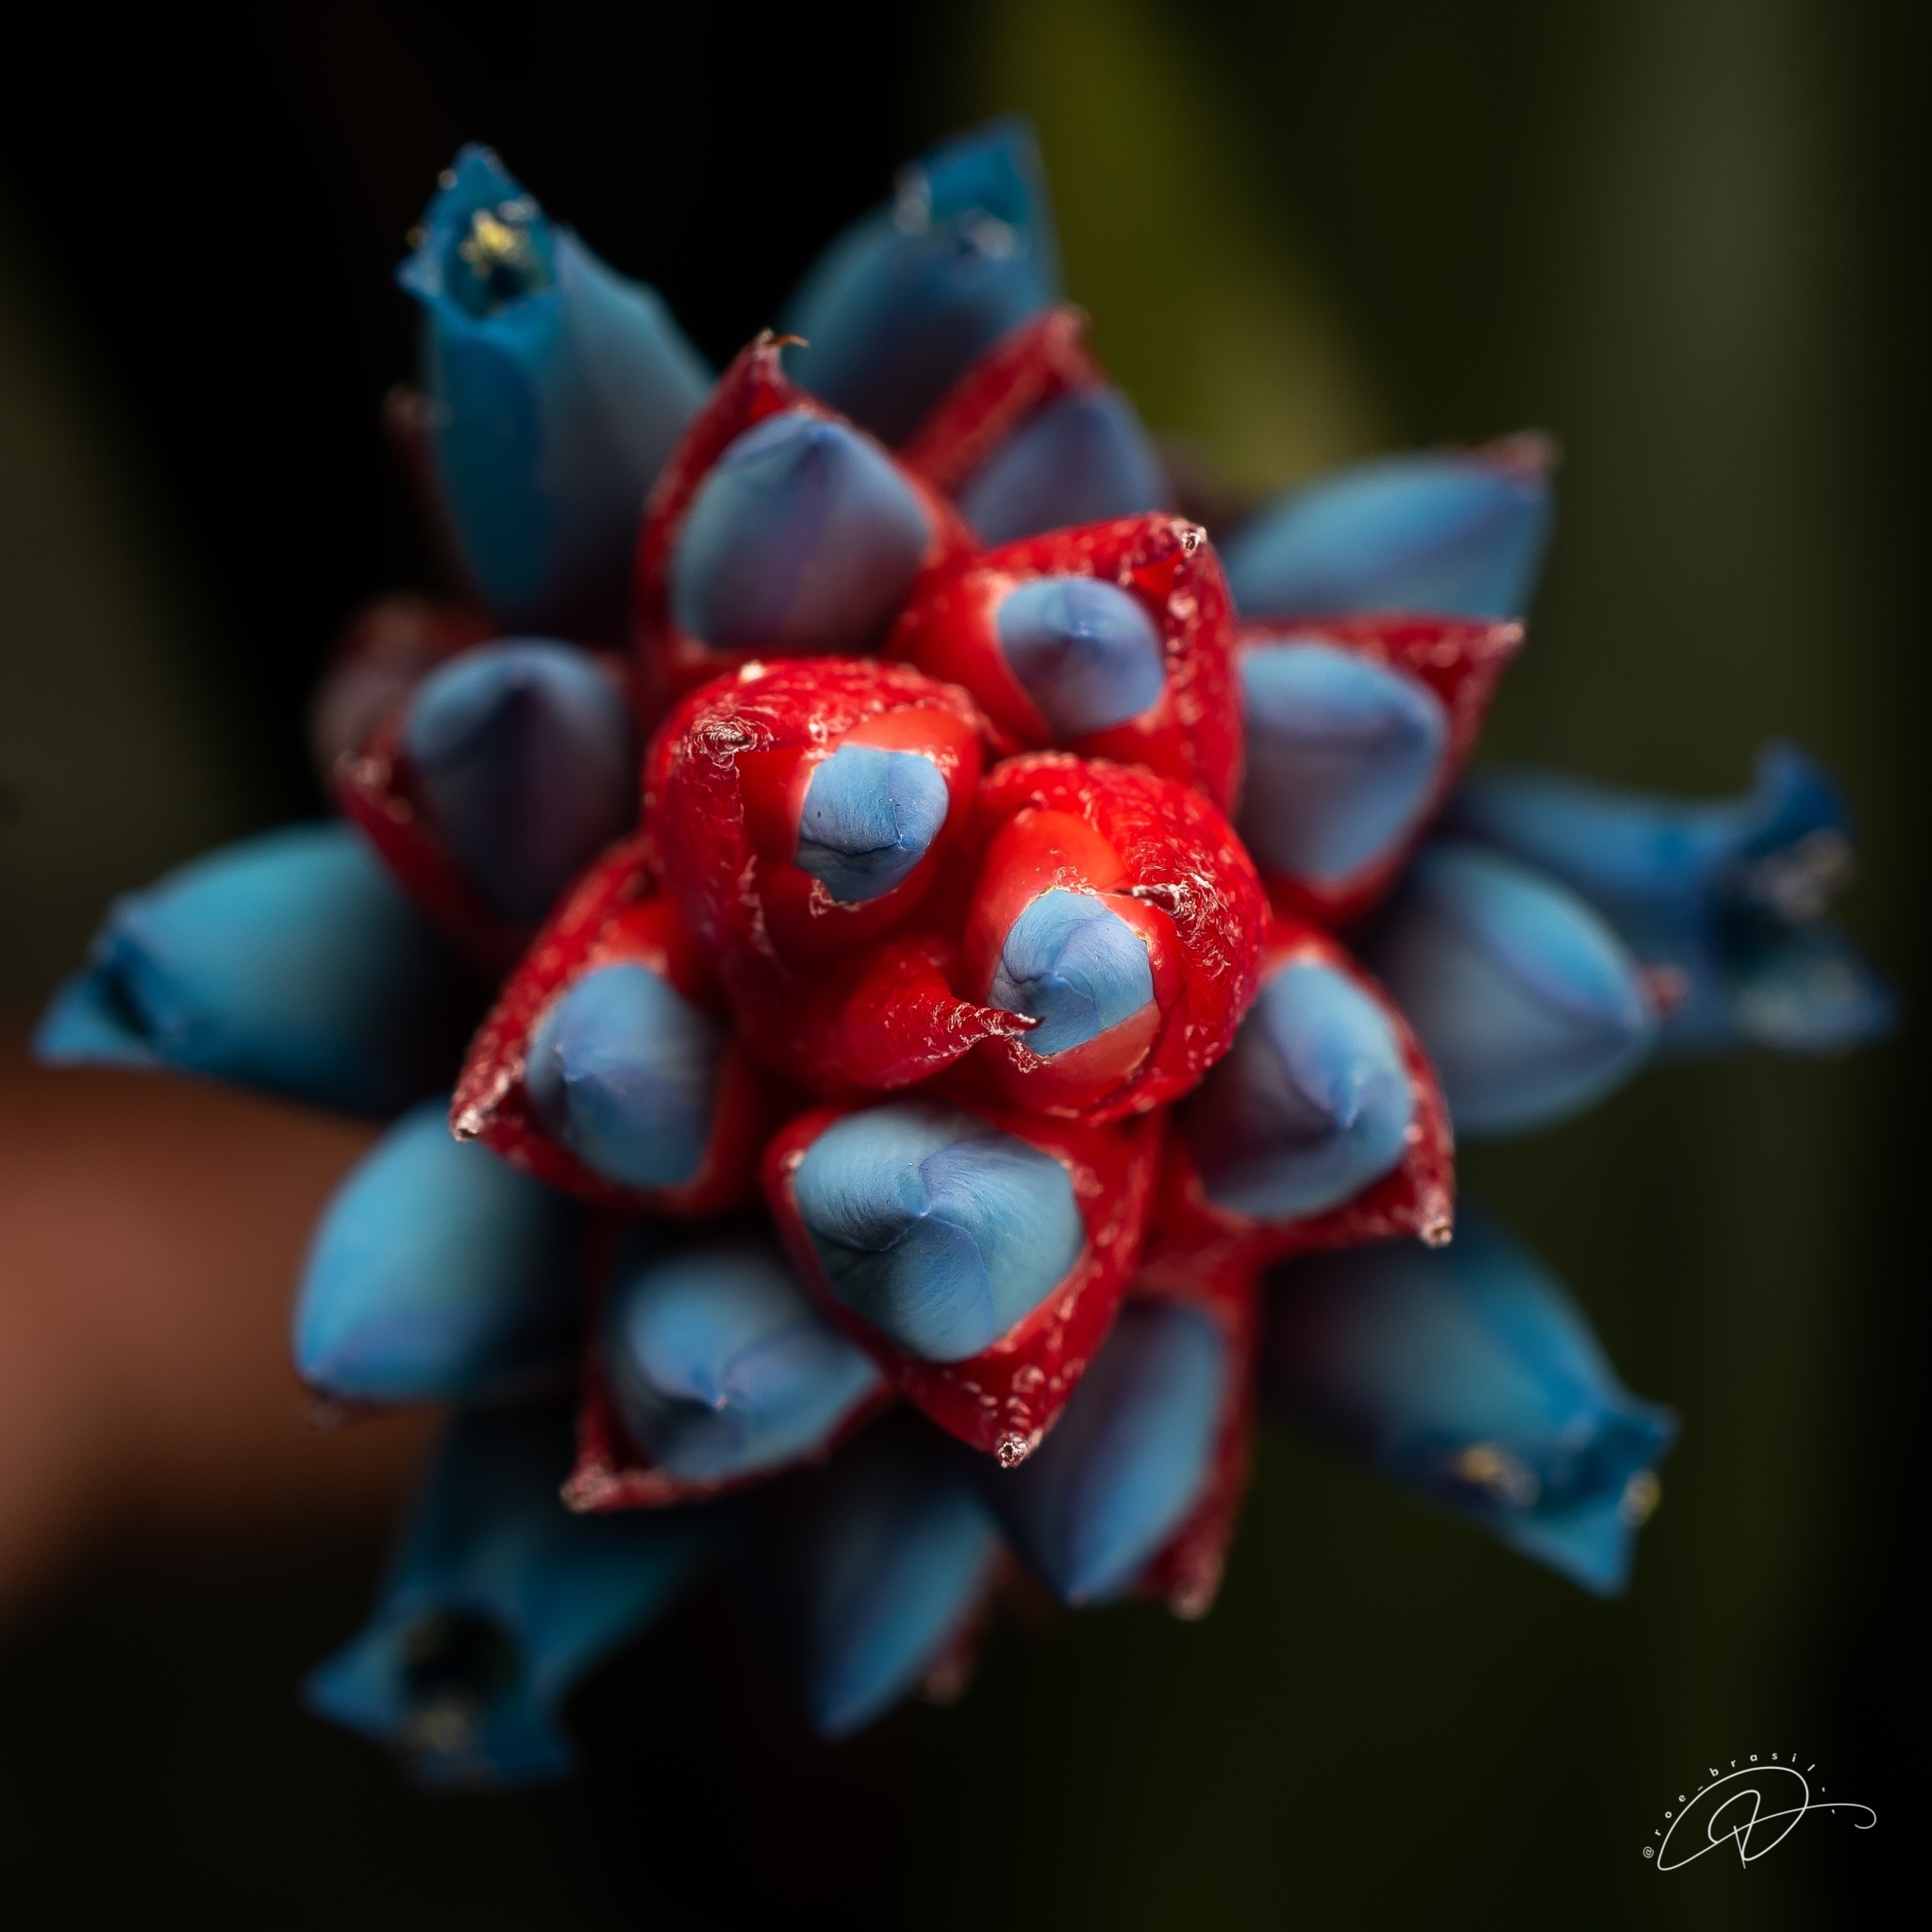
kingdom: Plantae
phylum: Tracheophyta
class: Liliopsida
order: Poales
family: Bromeliaceae
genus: Quesnelia
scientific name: Quesnelia lateralis
